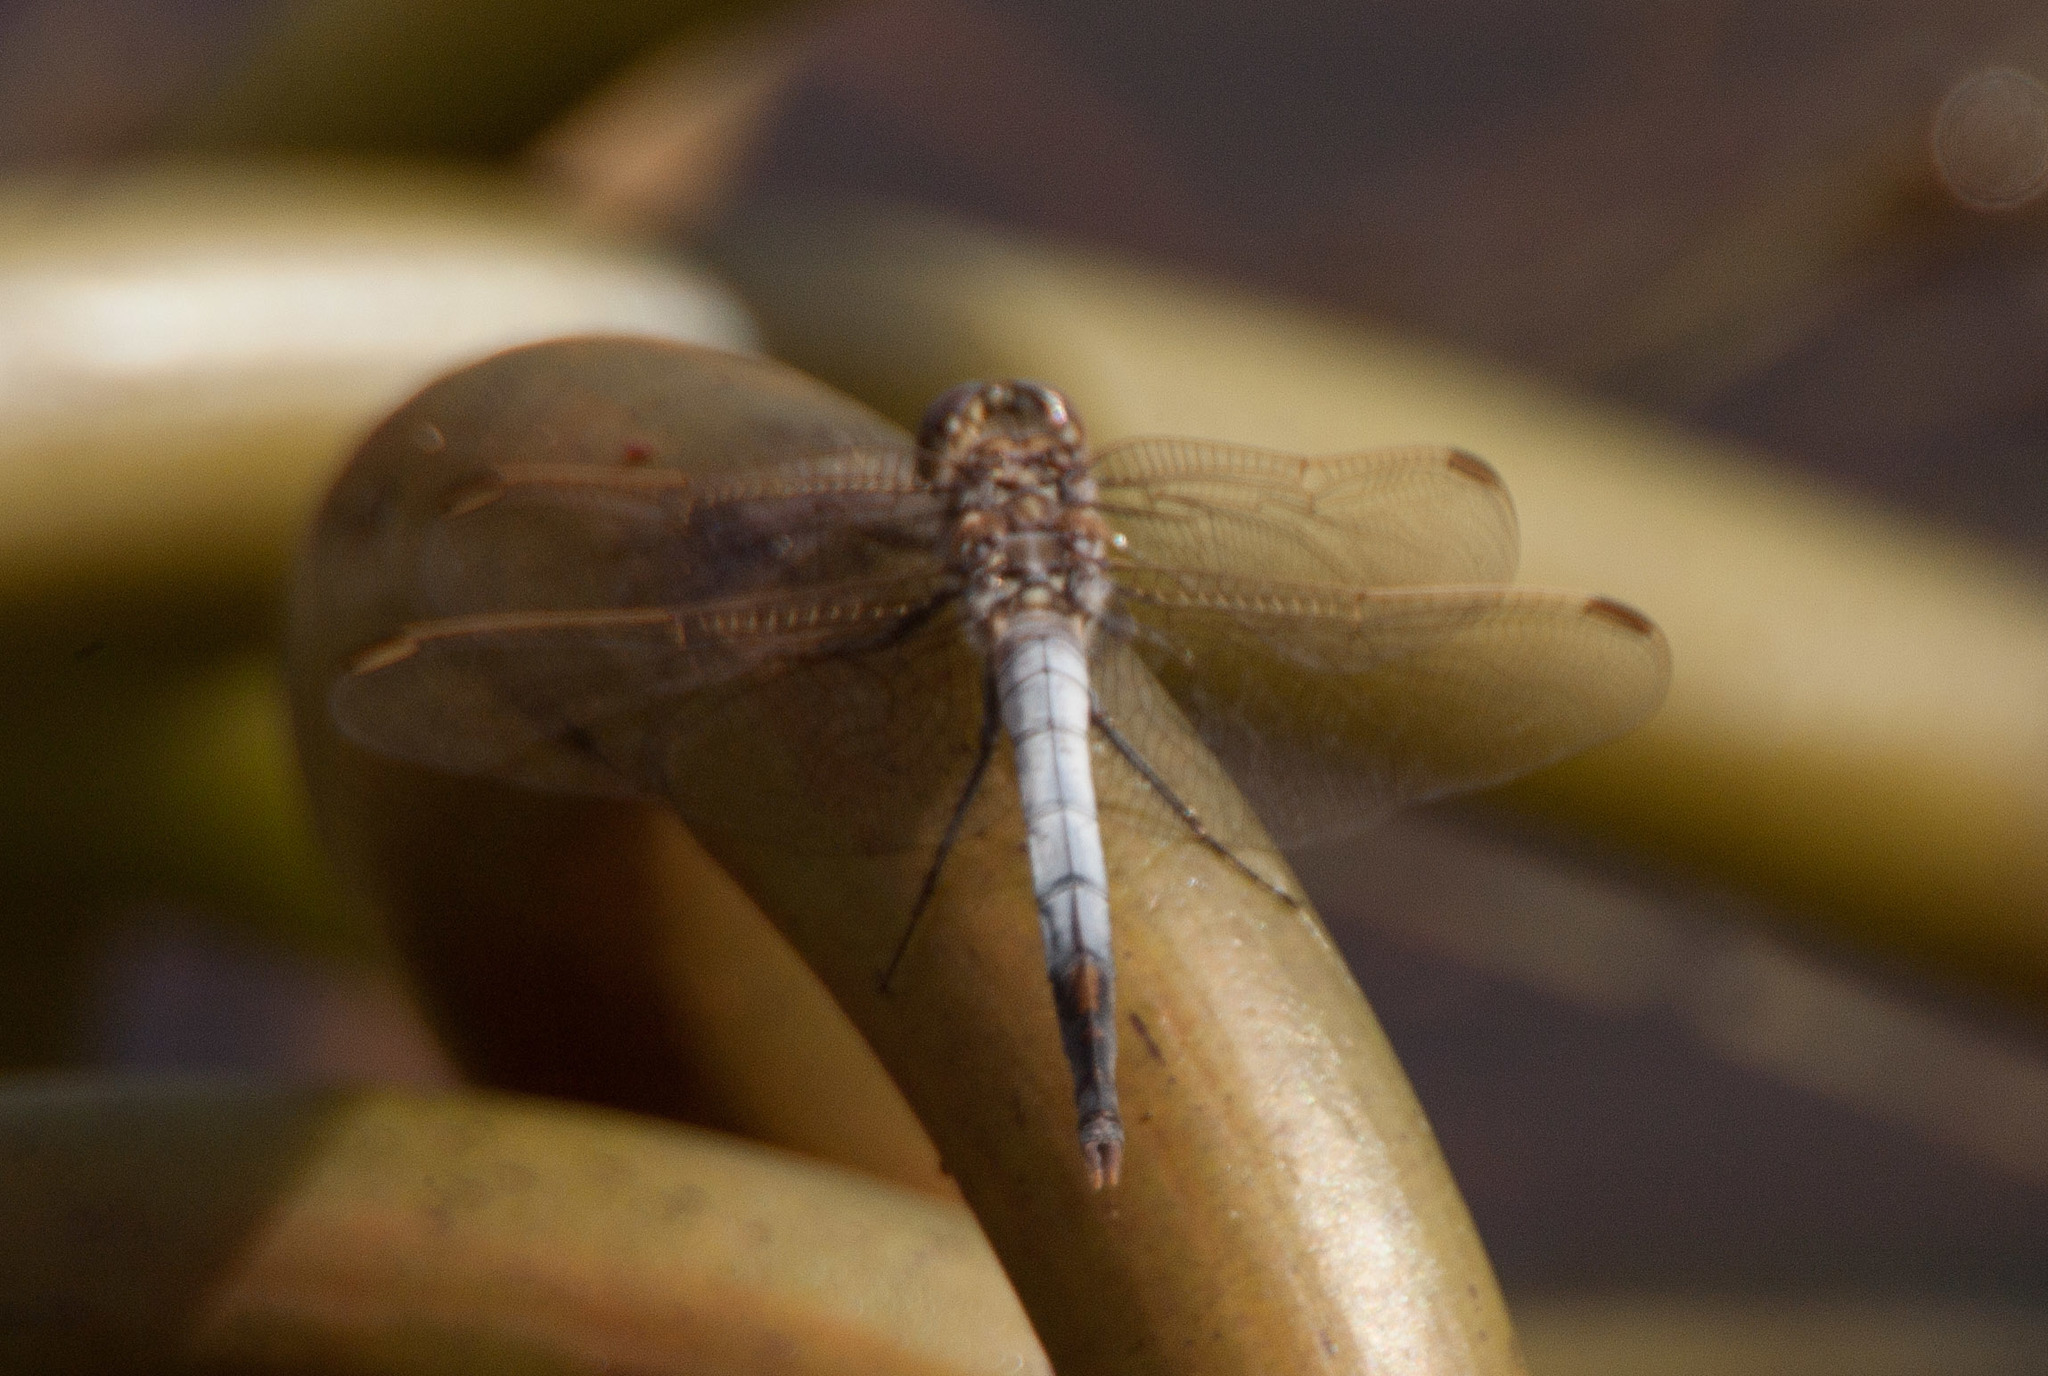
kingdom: Animalia
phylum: Arthropoda
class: Insecta
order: Odonata
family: Libellulidae
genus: Orthetrum
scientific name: Orthetrum caledonicum
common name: Blue skimmer
